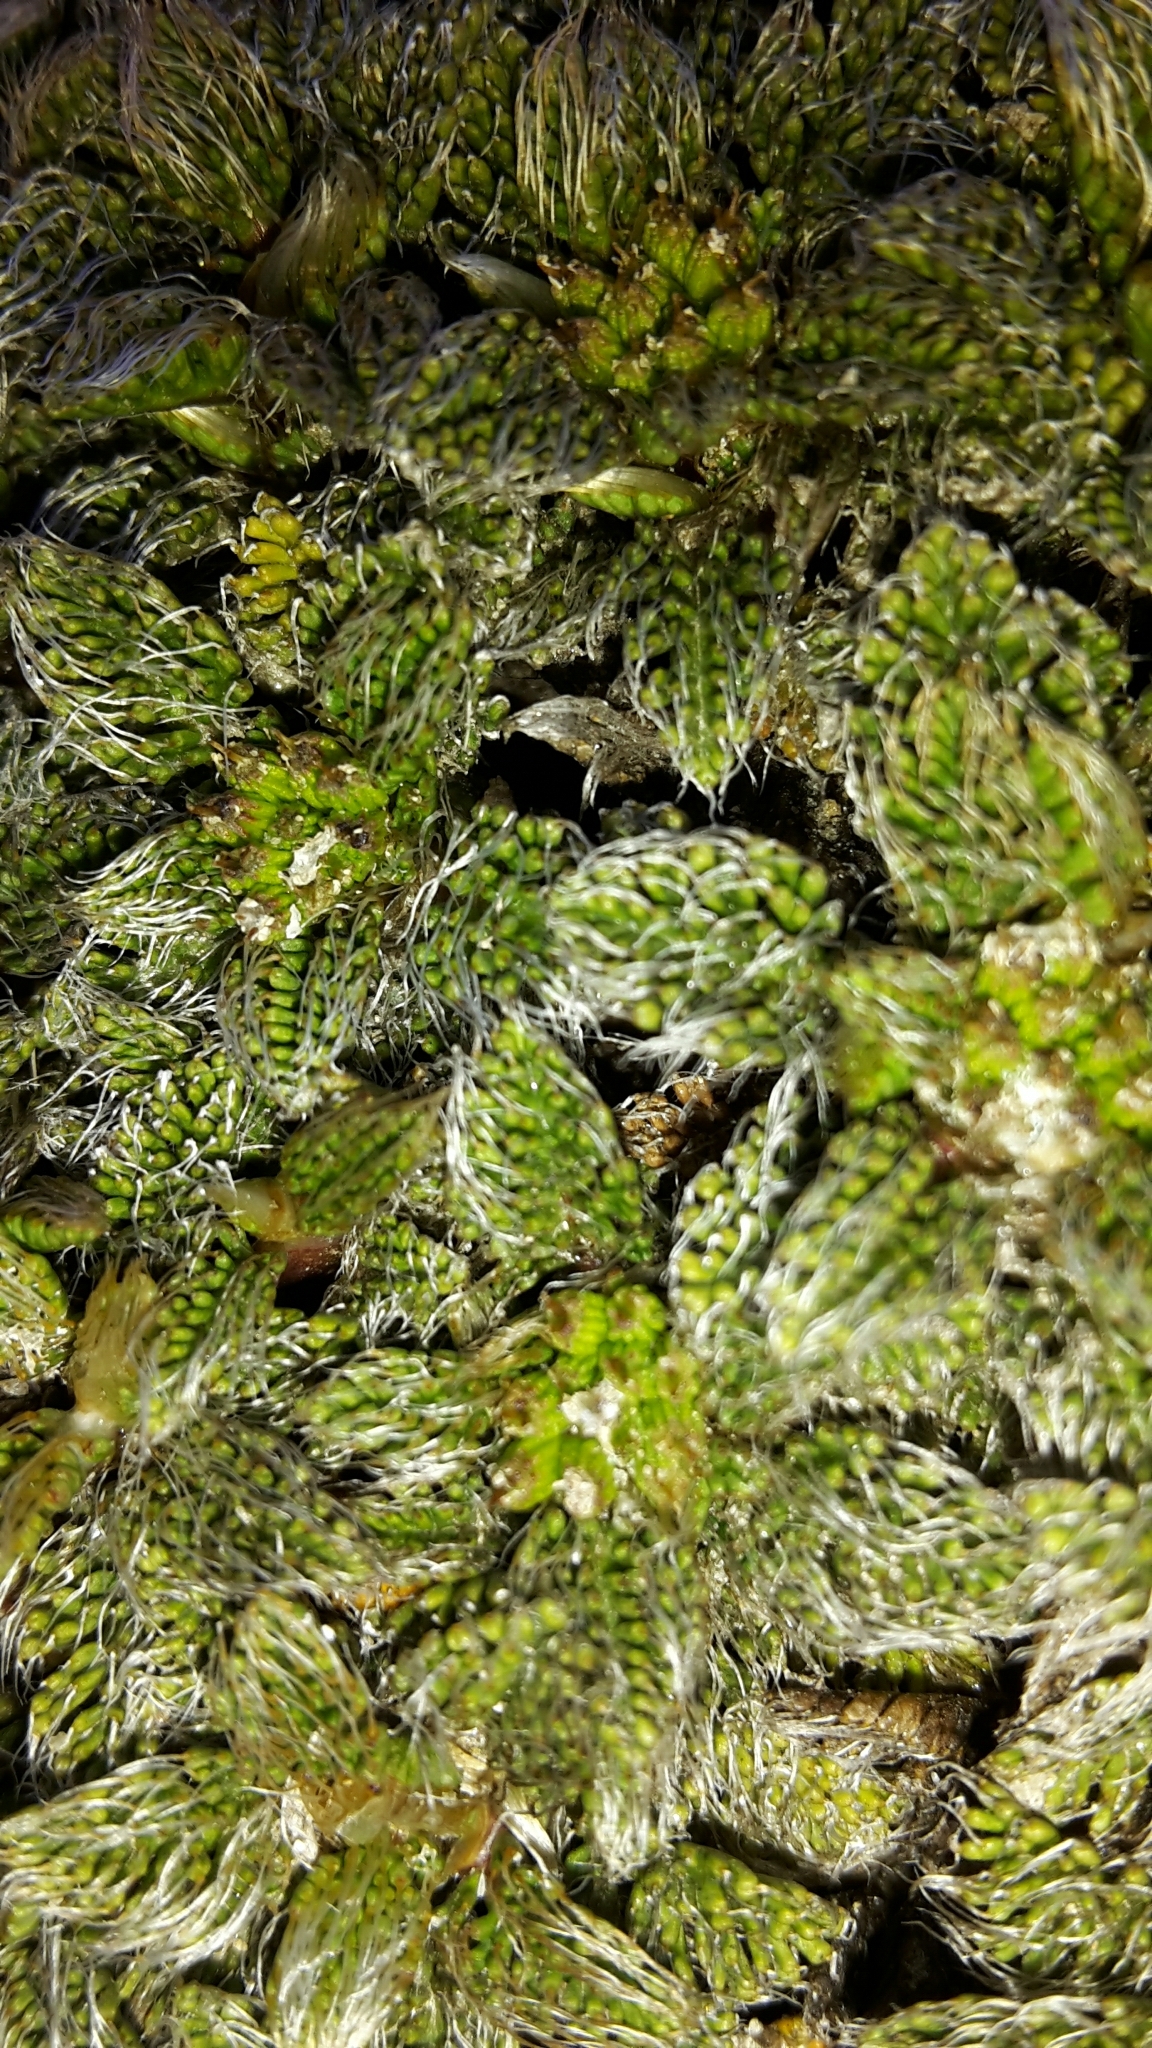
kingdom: Plantae
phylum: Tracheophyta
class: Magnoliopsida
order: Apiales
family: Apiaceae
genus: Anisotome
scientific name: Anisotome imbricata
